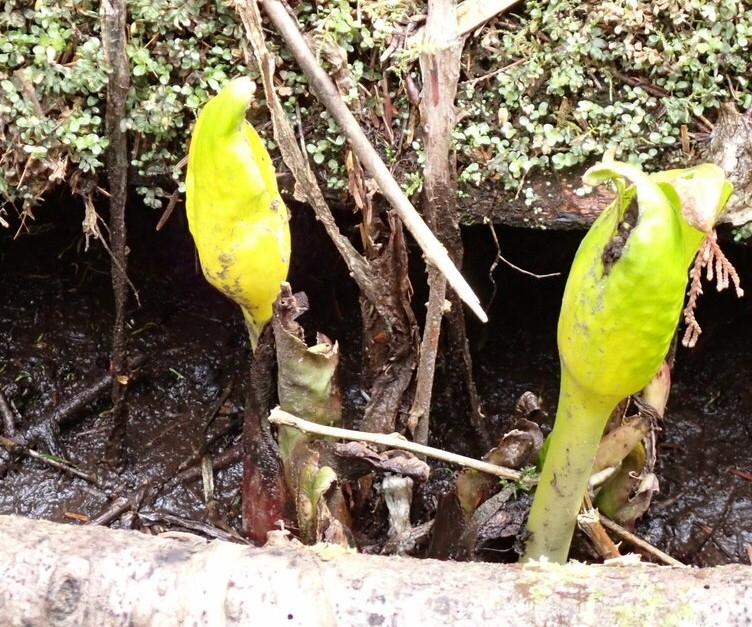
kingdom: Plantae
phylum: Tracheophyta
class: Liliopsida
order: Alismatales
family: Araceae
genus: Lysichiton
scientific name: Lysichiton americanus
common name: American skunk cabbage
